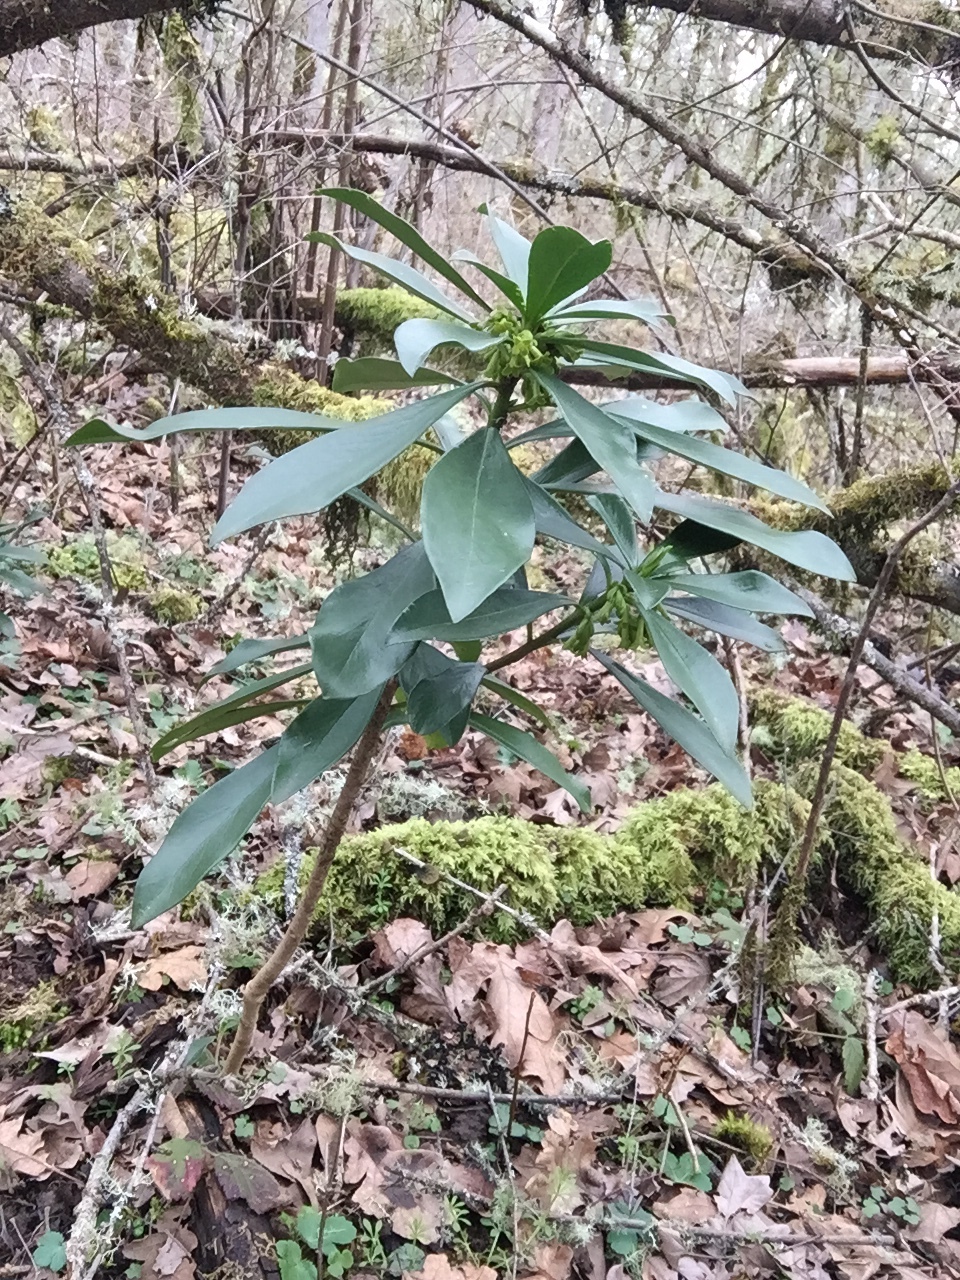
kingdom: Plantae
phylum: Tracheophyta
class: Magnoliopsida
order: Malvales
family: Thymelaeaceae
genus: Daphne
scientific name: Daphne laureola
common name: Spurge-laurel
